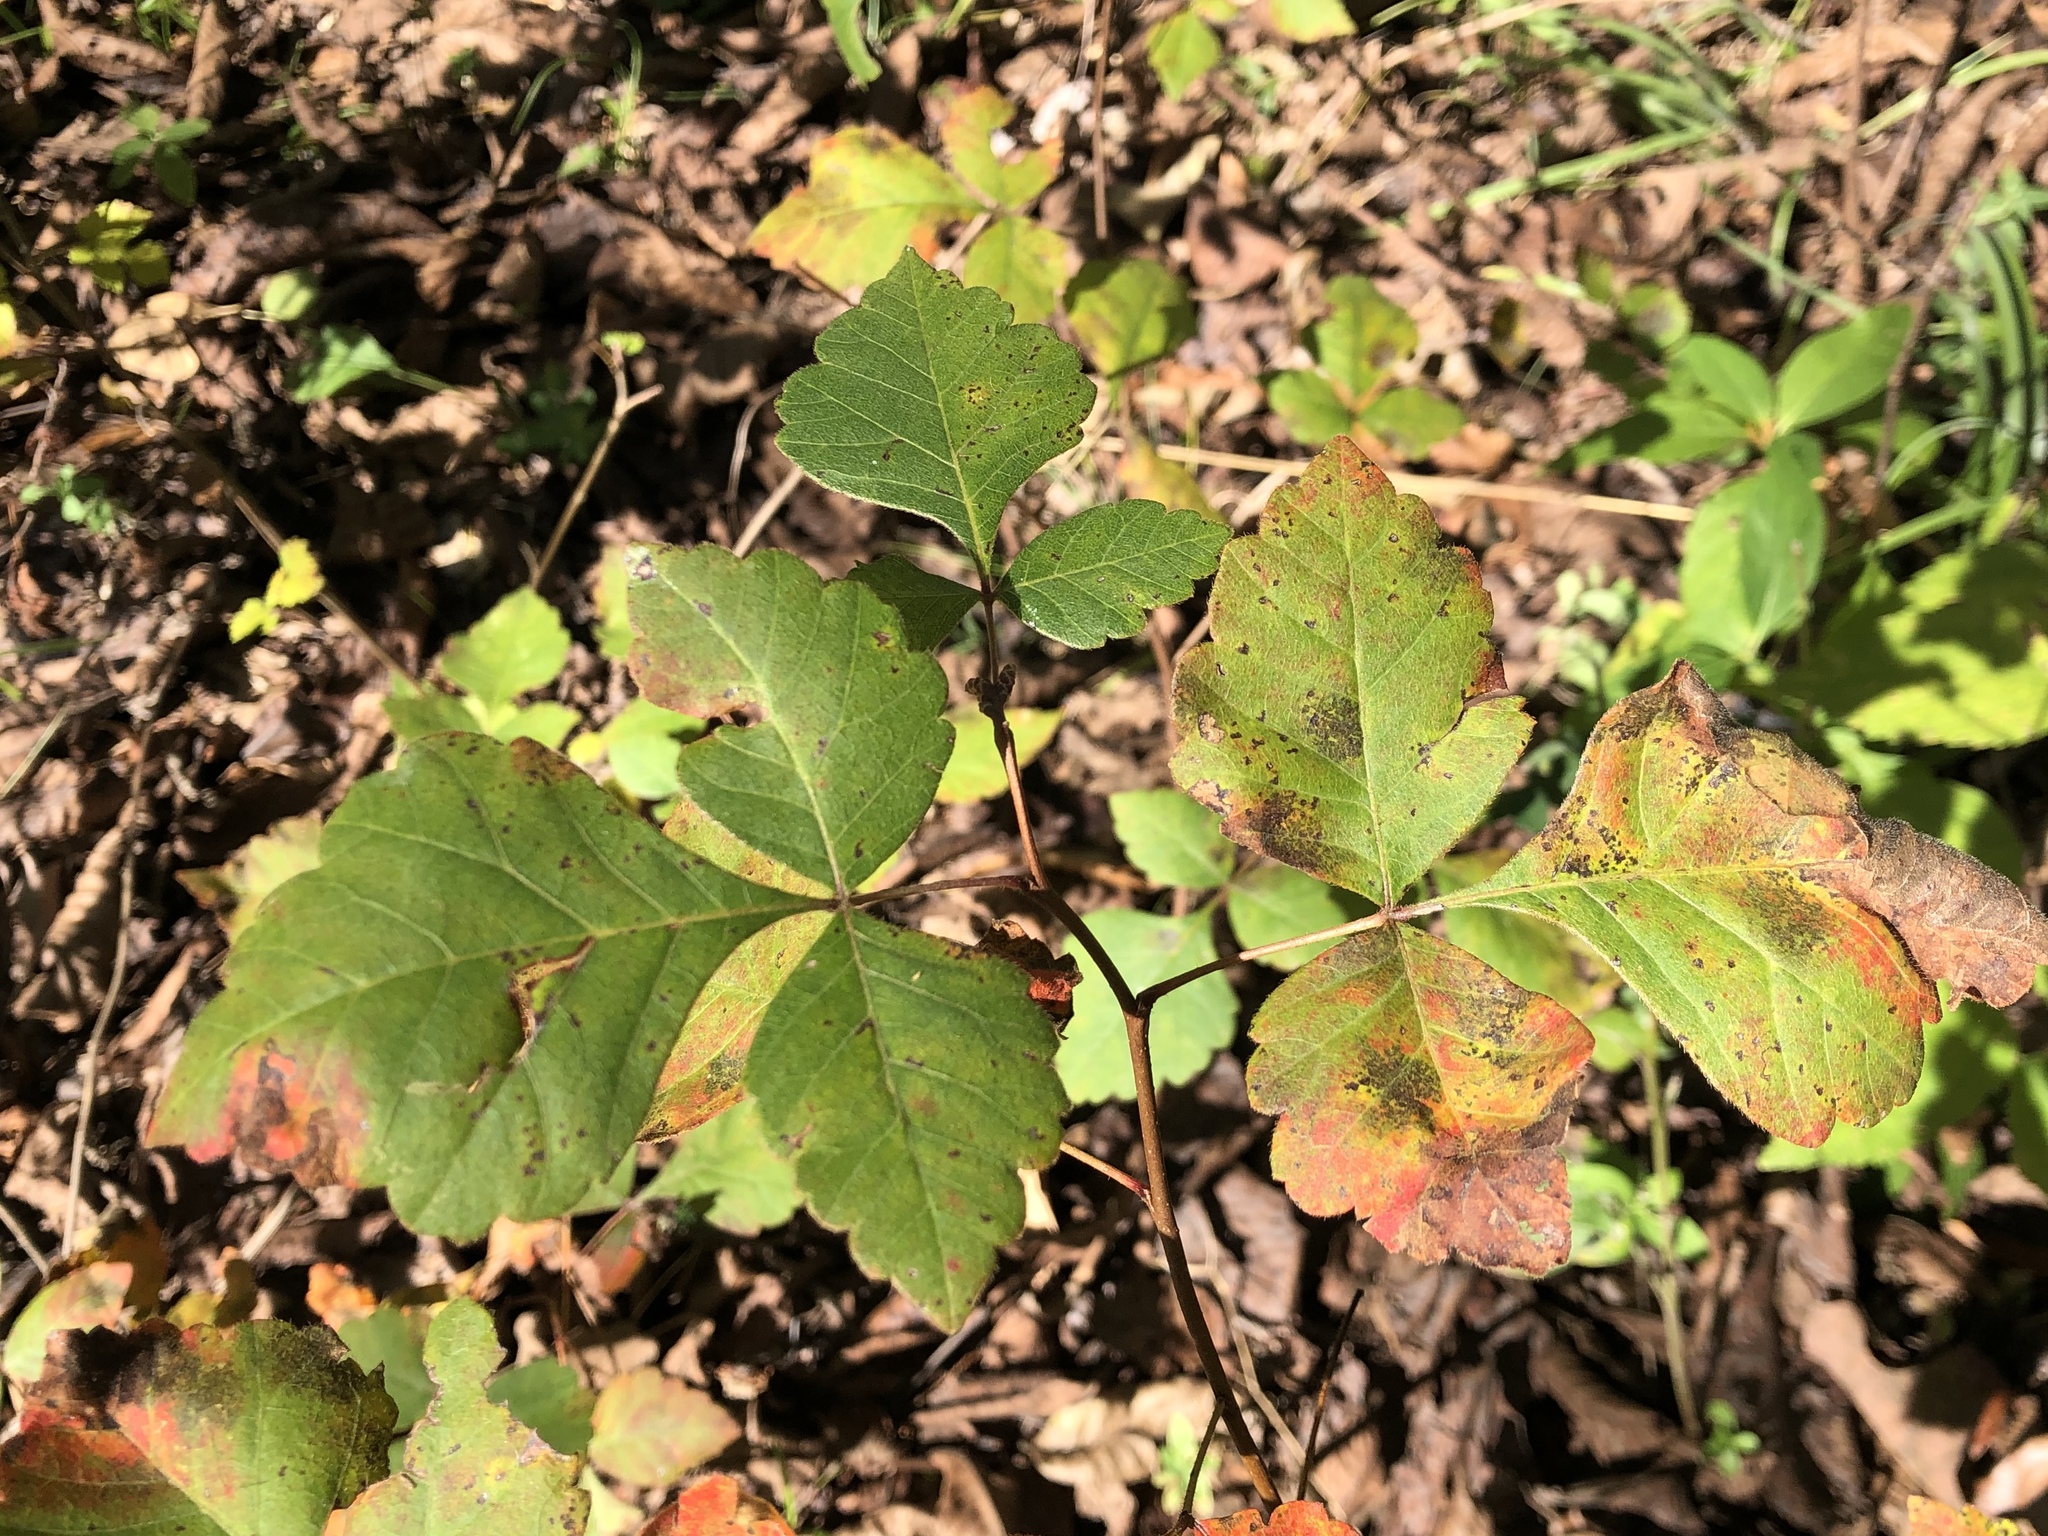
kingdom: Plantae
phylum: Tracheophyta
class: Magnoliopsida
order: Sapindales
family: Anacardiaceae
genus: Rhus
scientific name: Rhus aromatica
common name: Aromatic sumac
